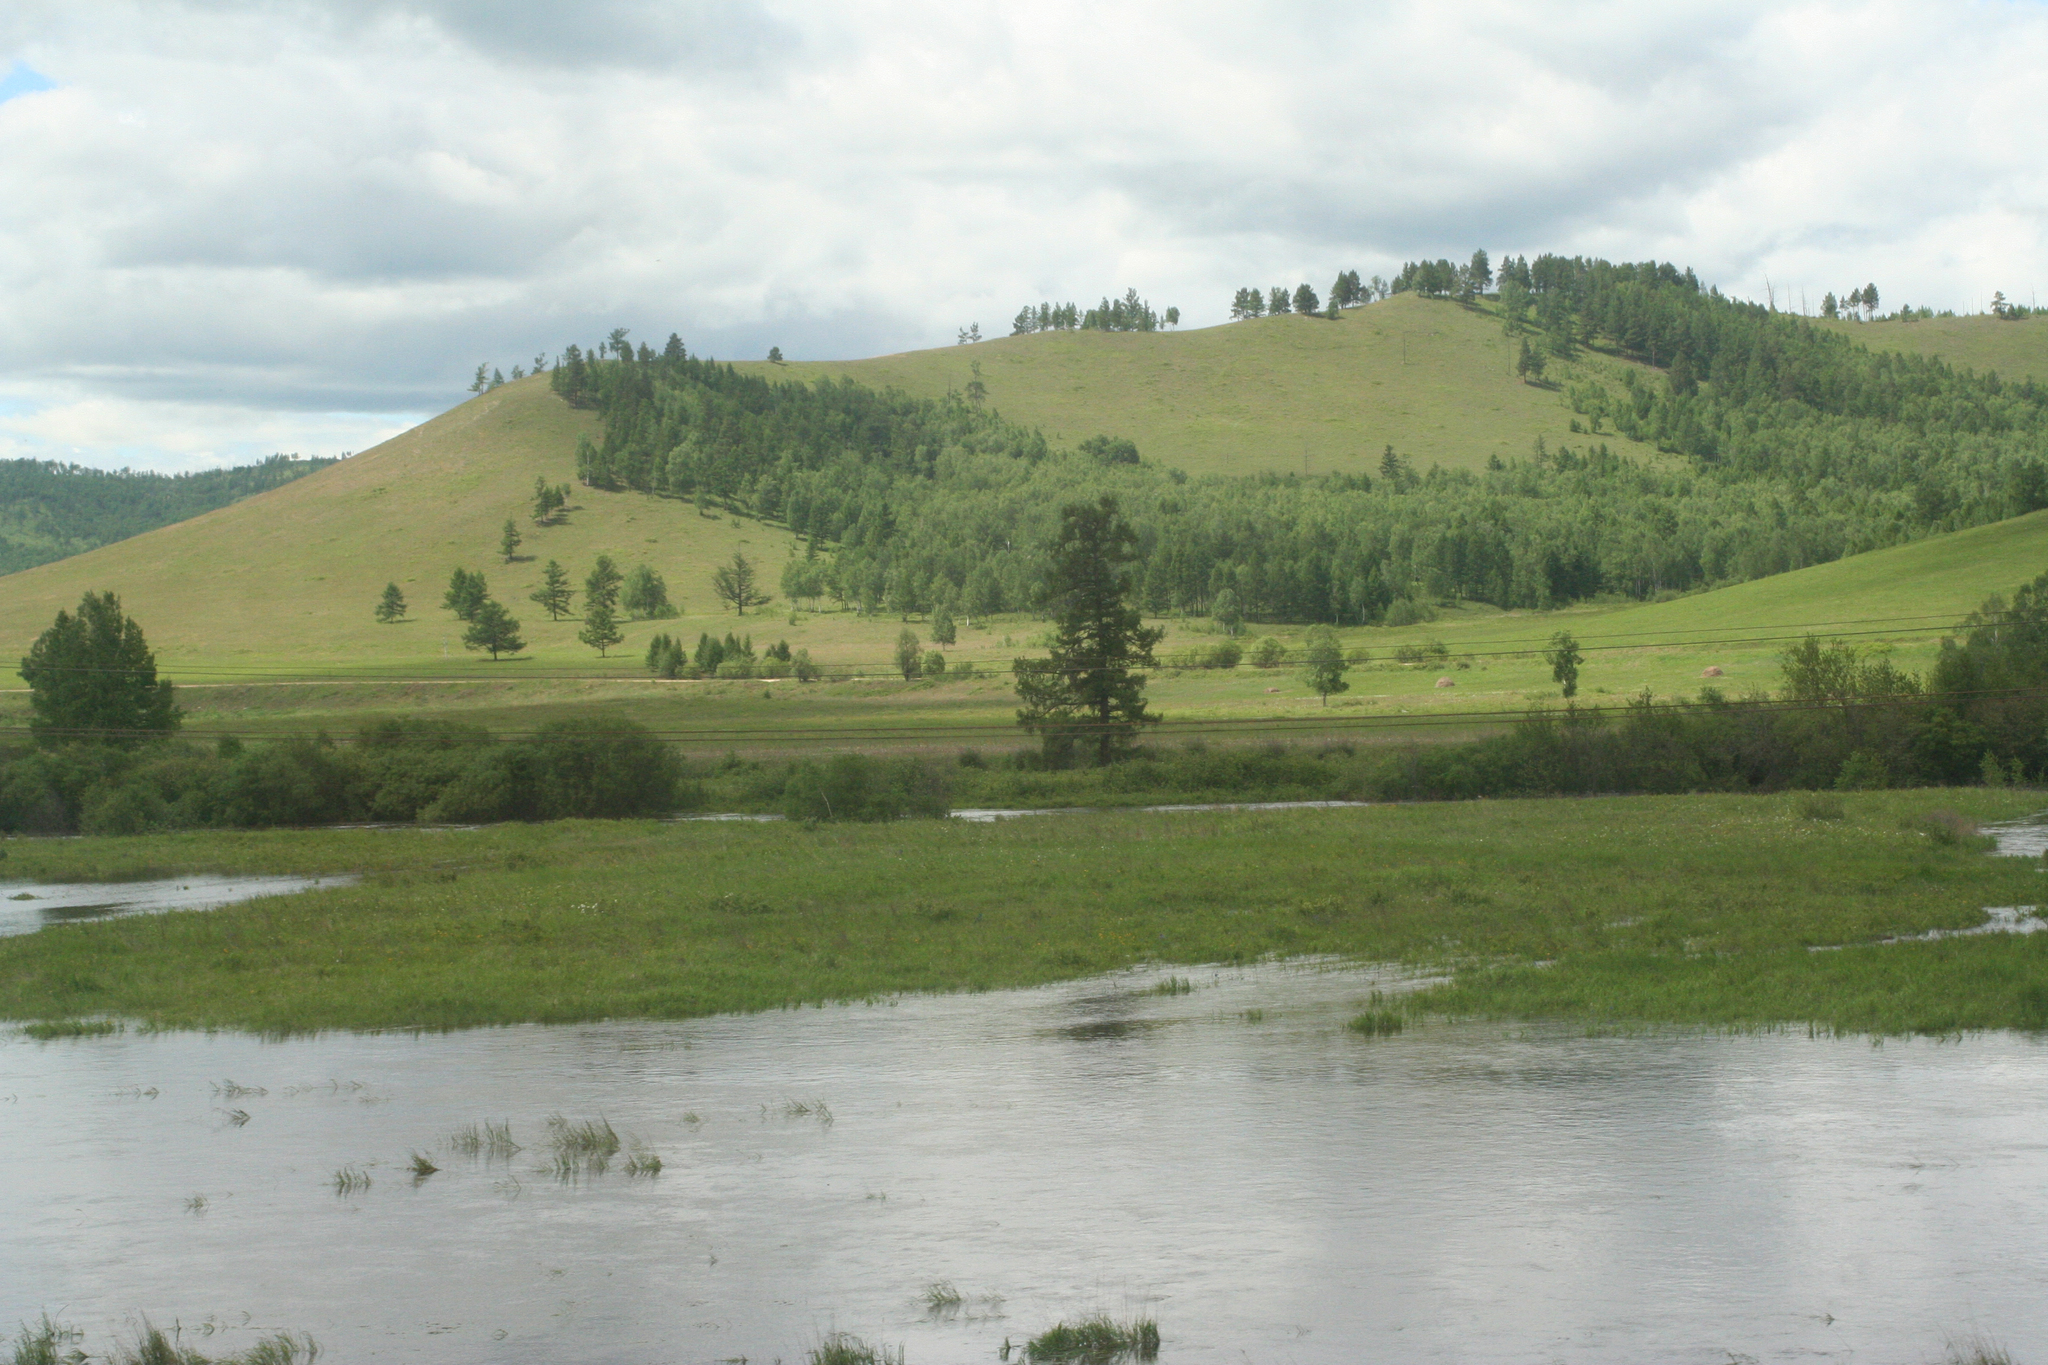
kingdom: Plantae
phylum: Tracheophyta
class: Pinopsida
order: Pinales
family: Pinaceae
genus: Larix
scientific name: Larix gmelinii
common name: Dahurian larch
